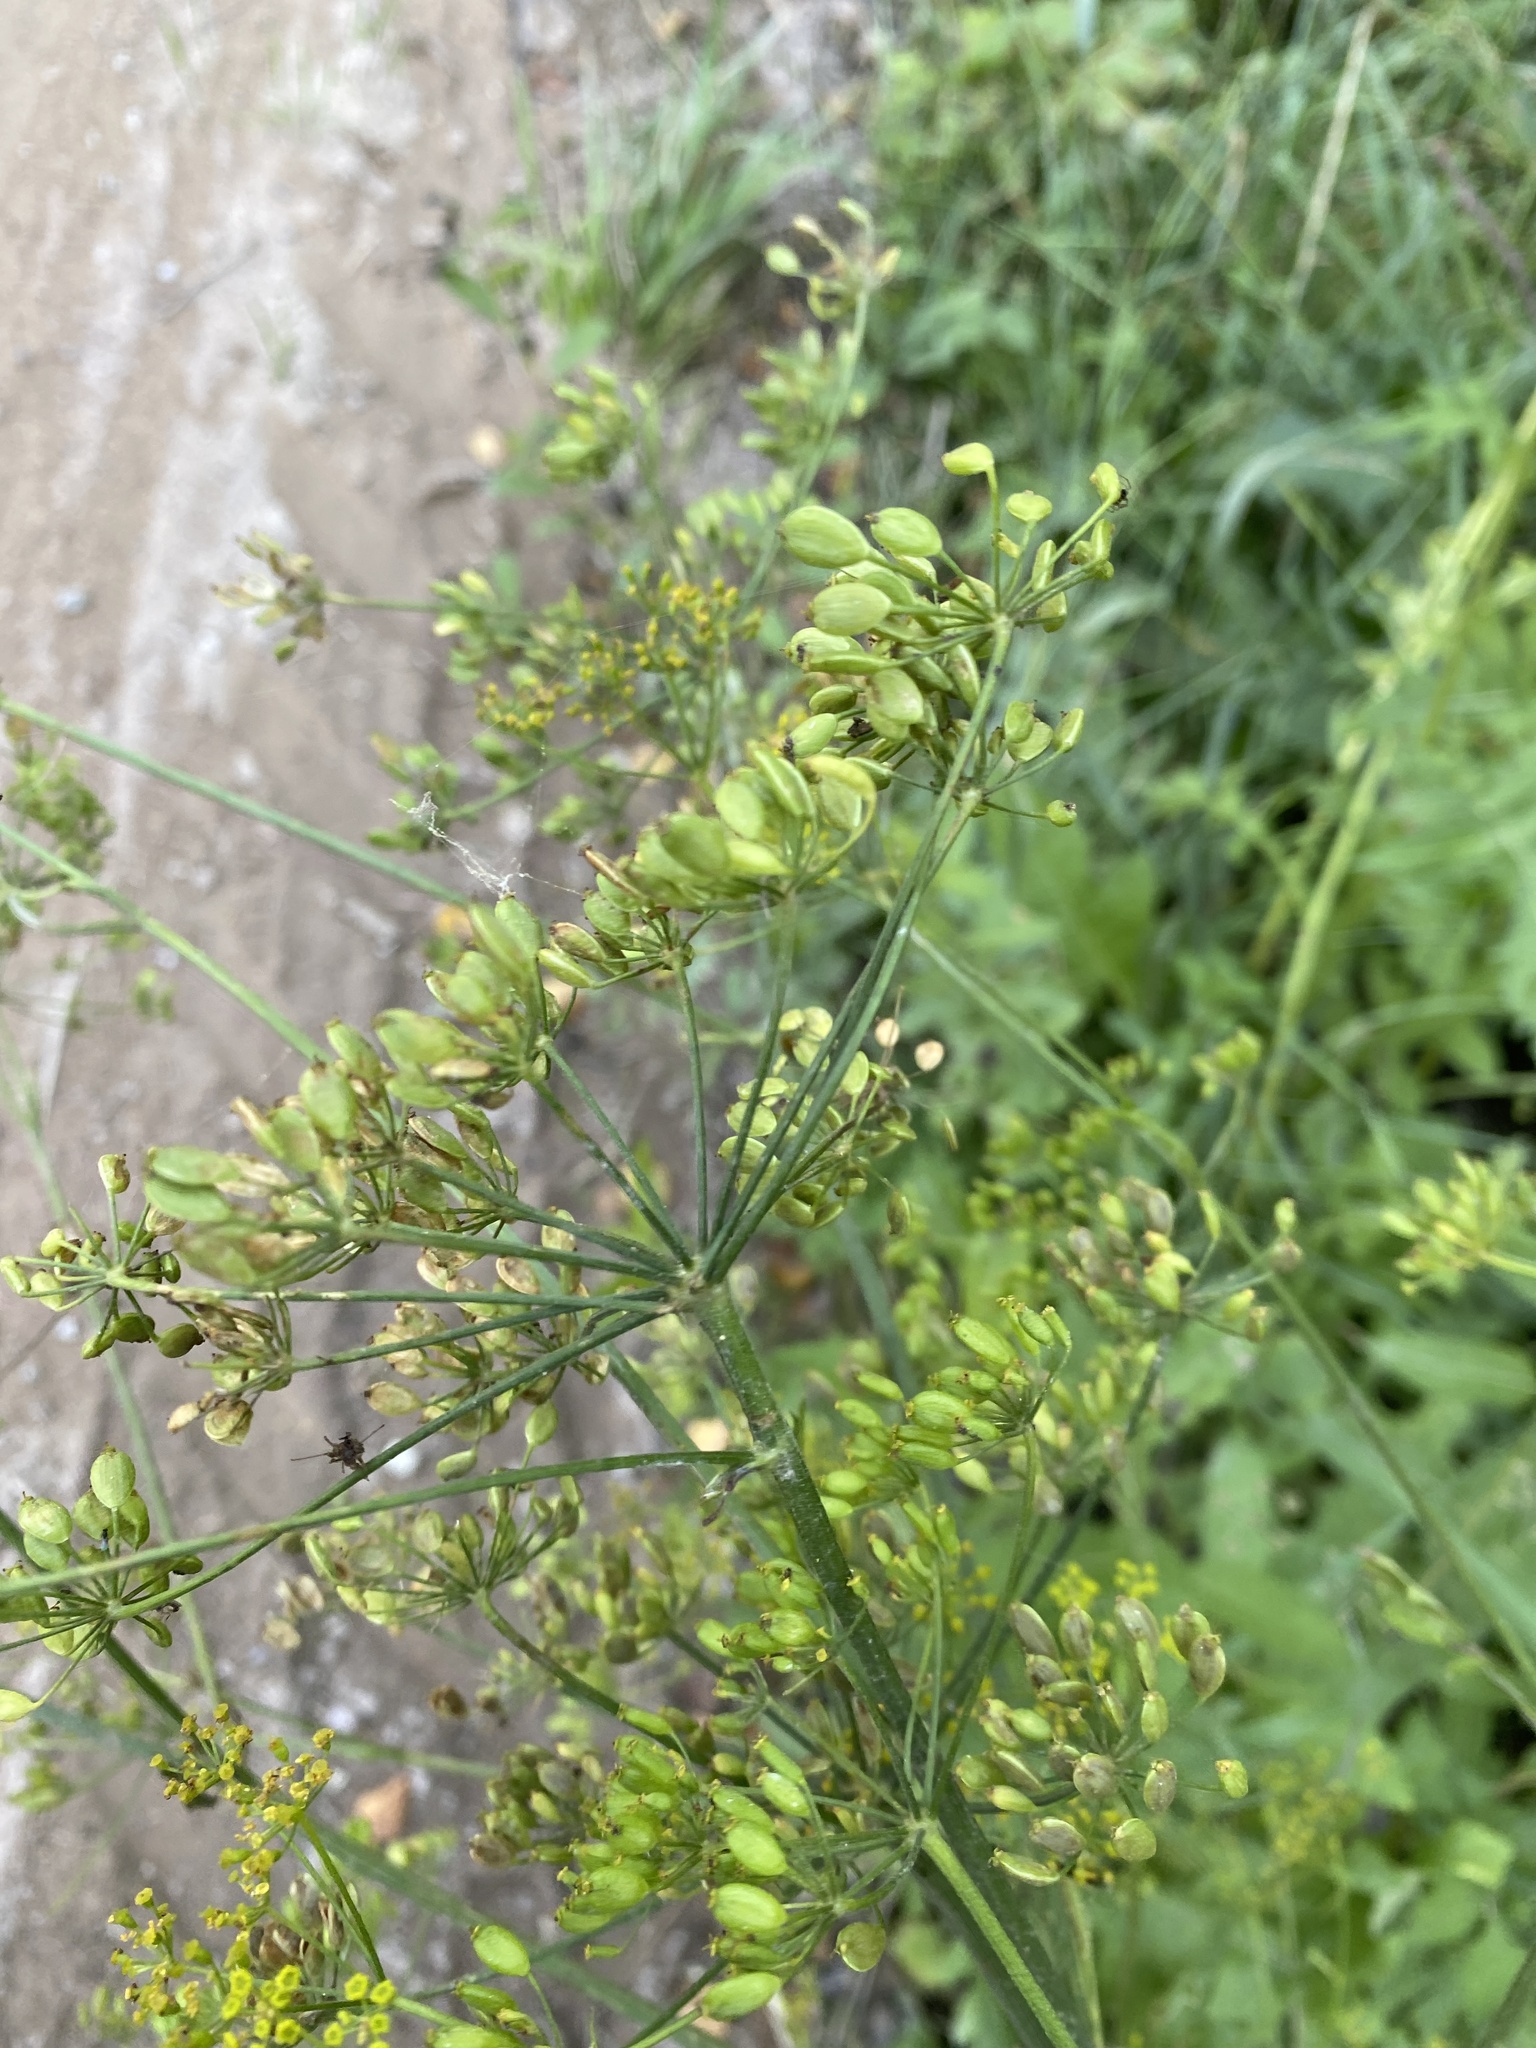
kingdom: Plantae
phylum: Tracheophyta
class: Magnoliopsida
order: Apiales
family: Apiaceae
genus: Pastinaca
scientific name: Pastinaca sativa
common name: Wild parsnip
